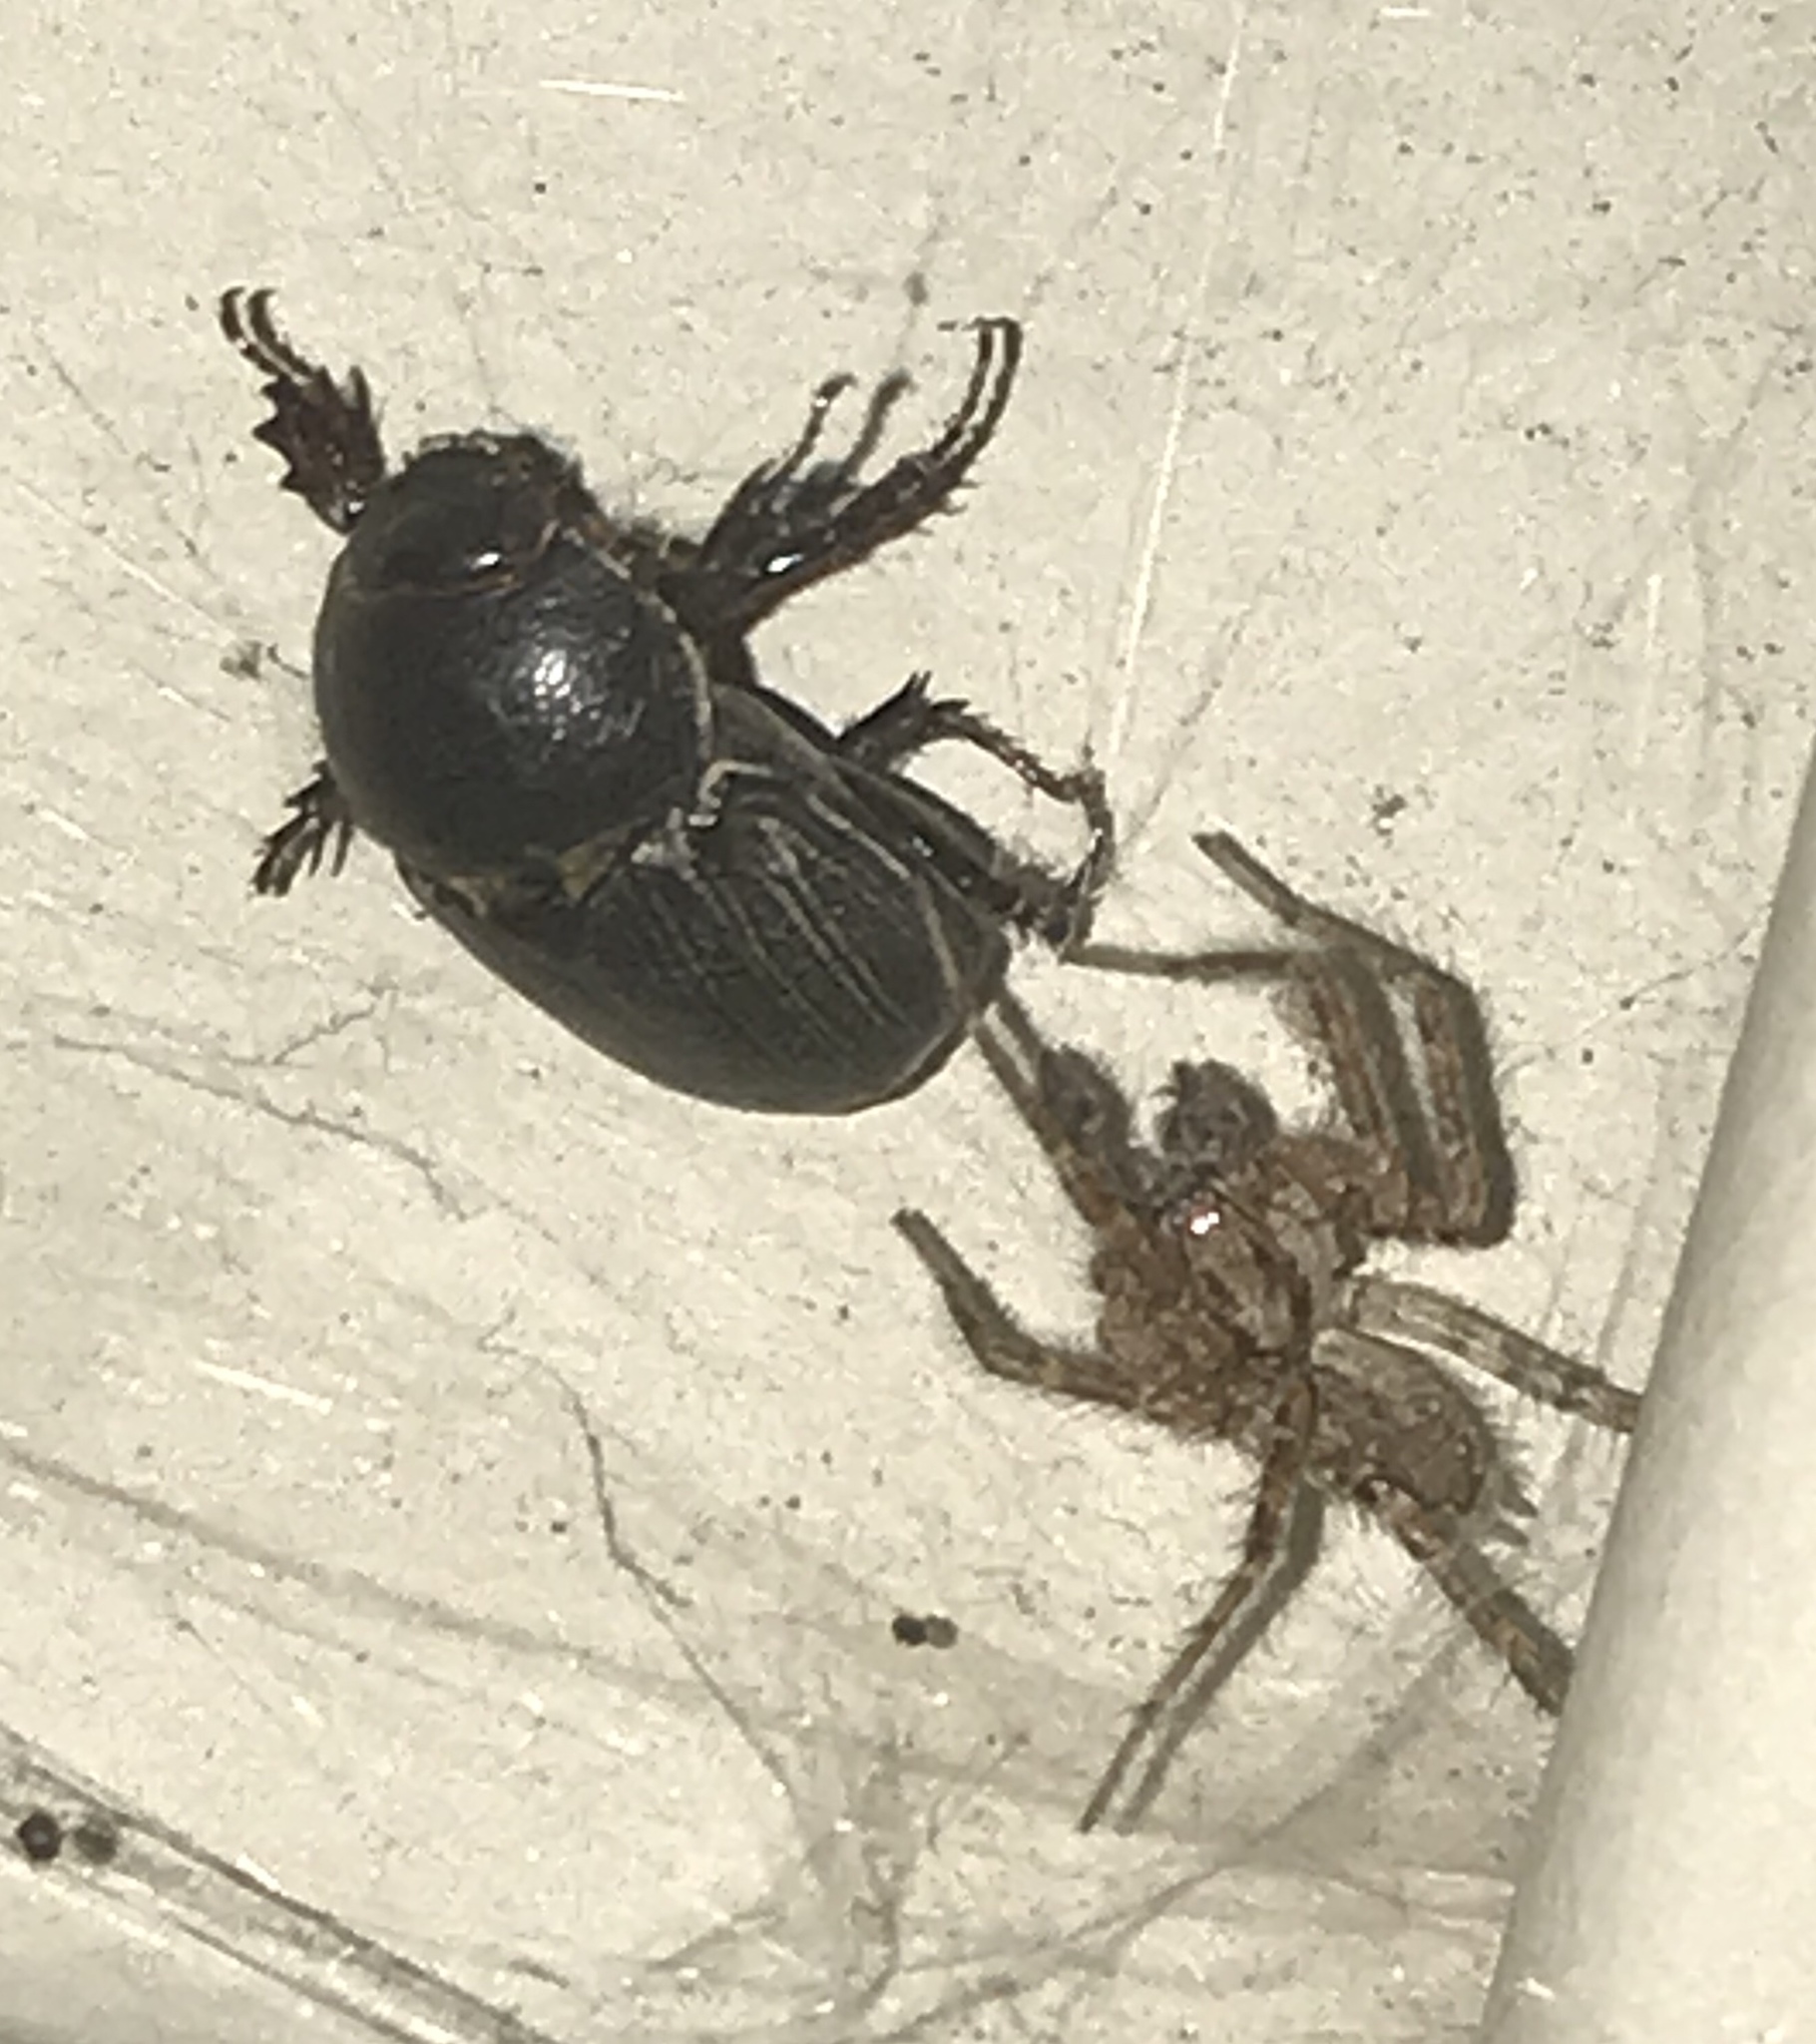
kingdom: Animalia
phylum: Arthropoda
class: Arachnida
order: Araneae
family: Agelenidae
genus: Barronopsis
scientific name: Barronopsis texana
